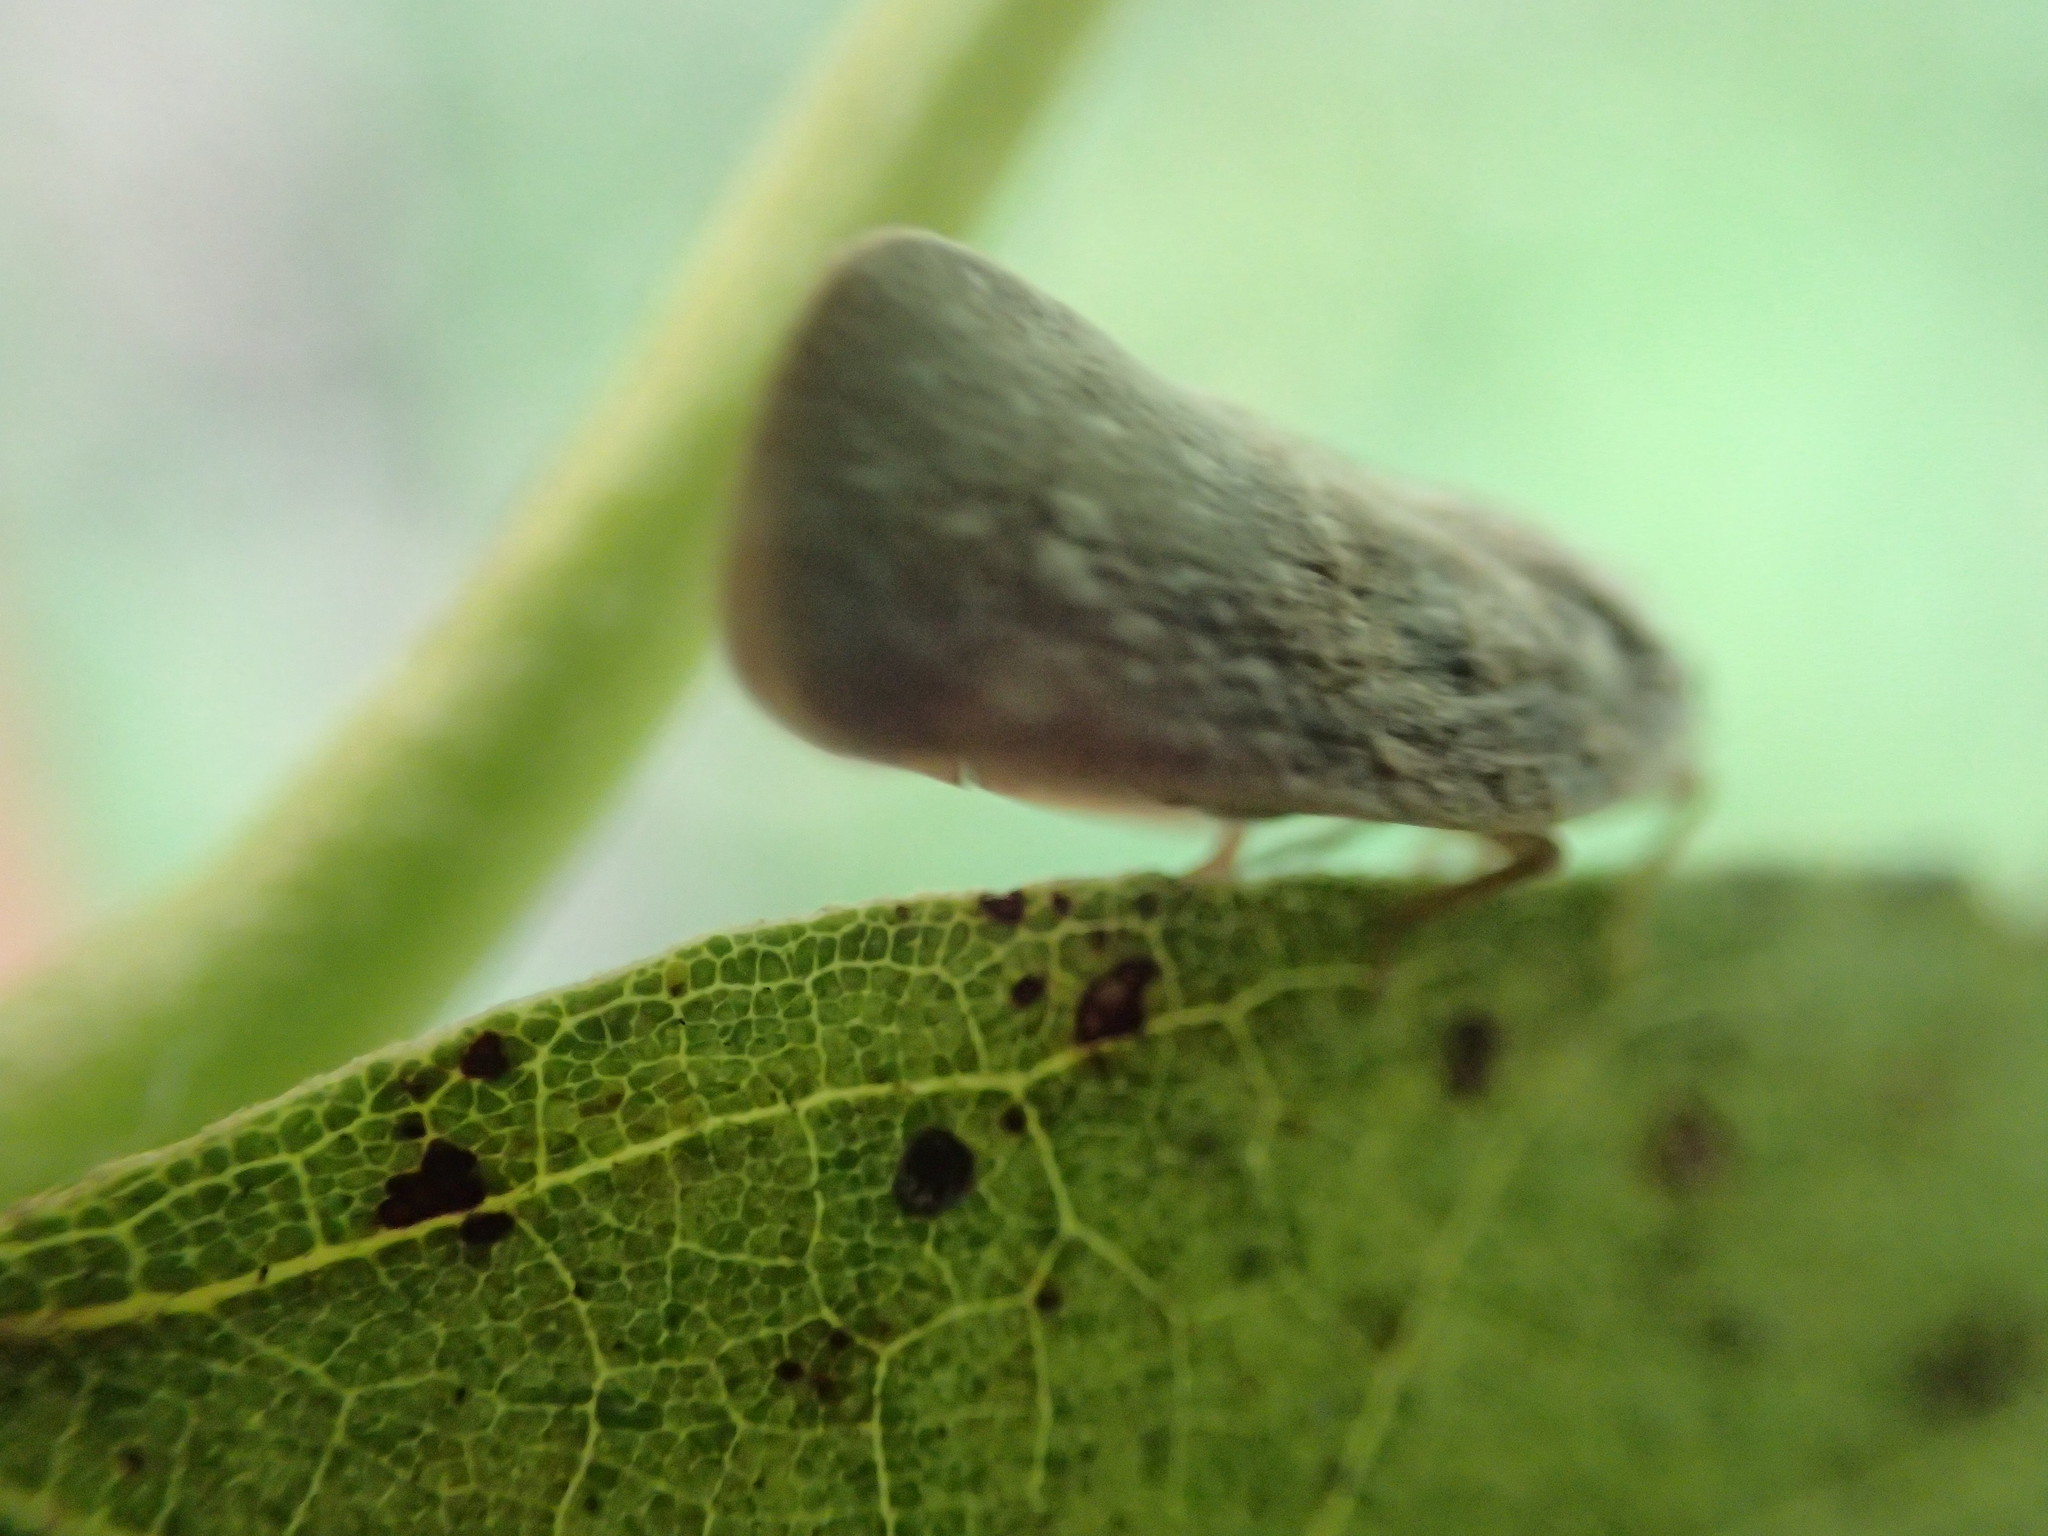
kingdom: Animalia
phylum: Arthropoda
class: Insecta
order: Hemiptera
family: Flatidae
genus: Metcalfa
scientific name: Metcalfa pruinosa
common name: Citrus flatid planthopper
